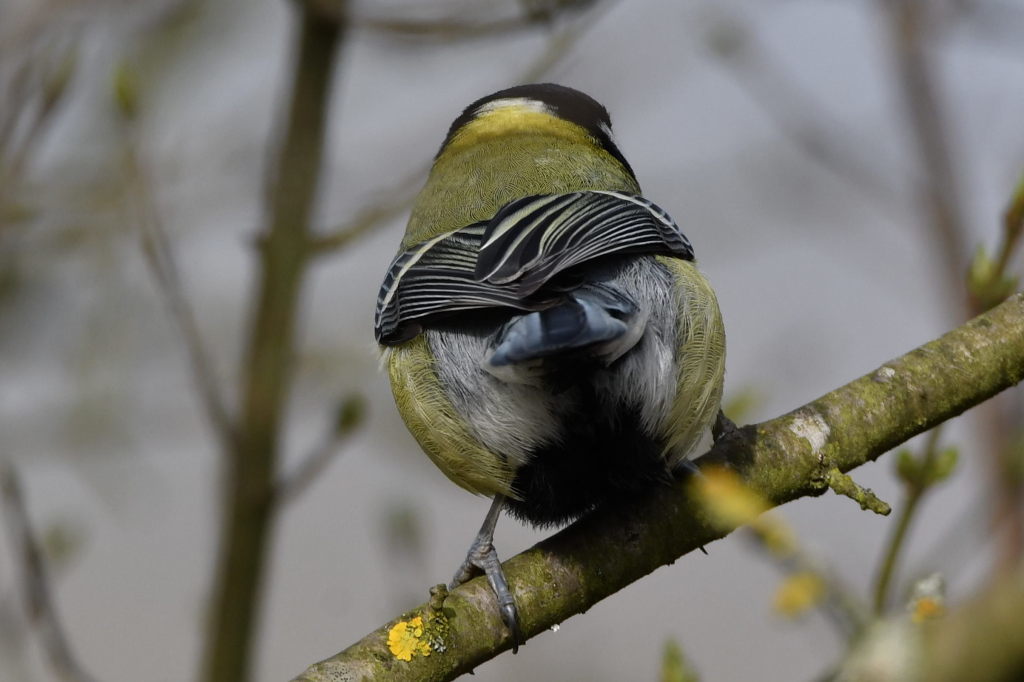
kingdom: Animalia
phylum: Chordata
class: Aves
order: Passeriformes
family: Paridae
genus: Parus
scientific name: Parus major
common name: Great tit
